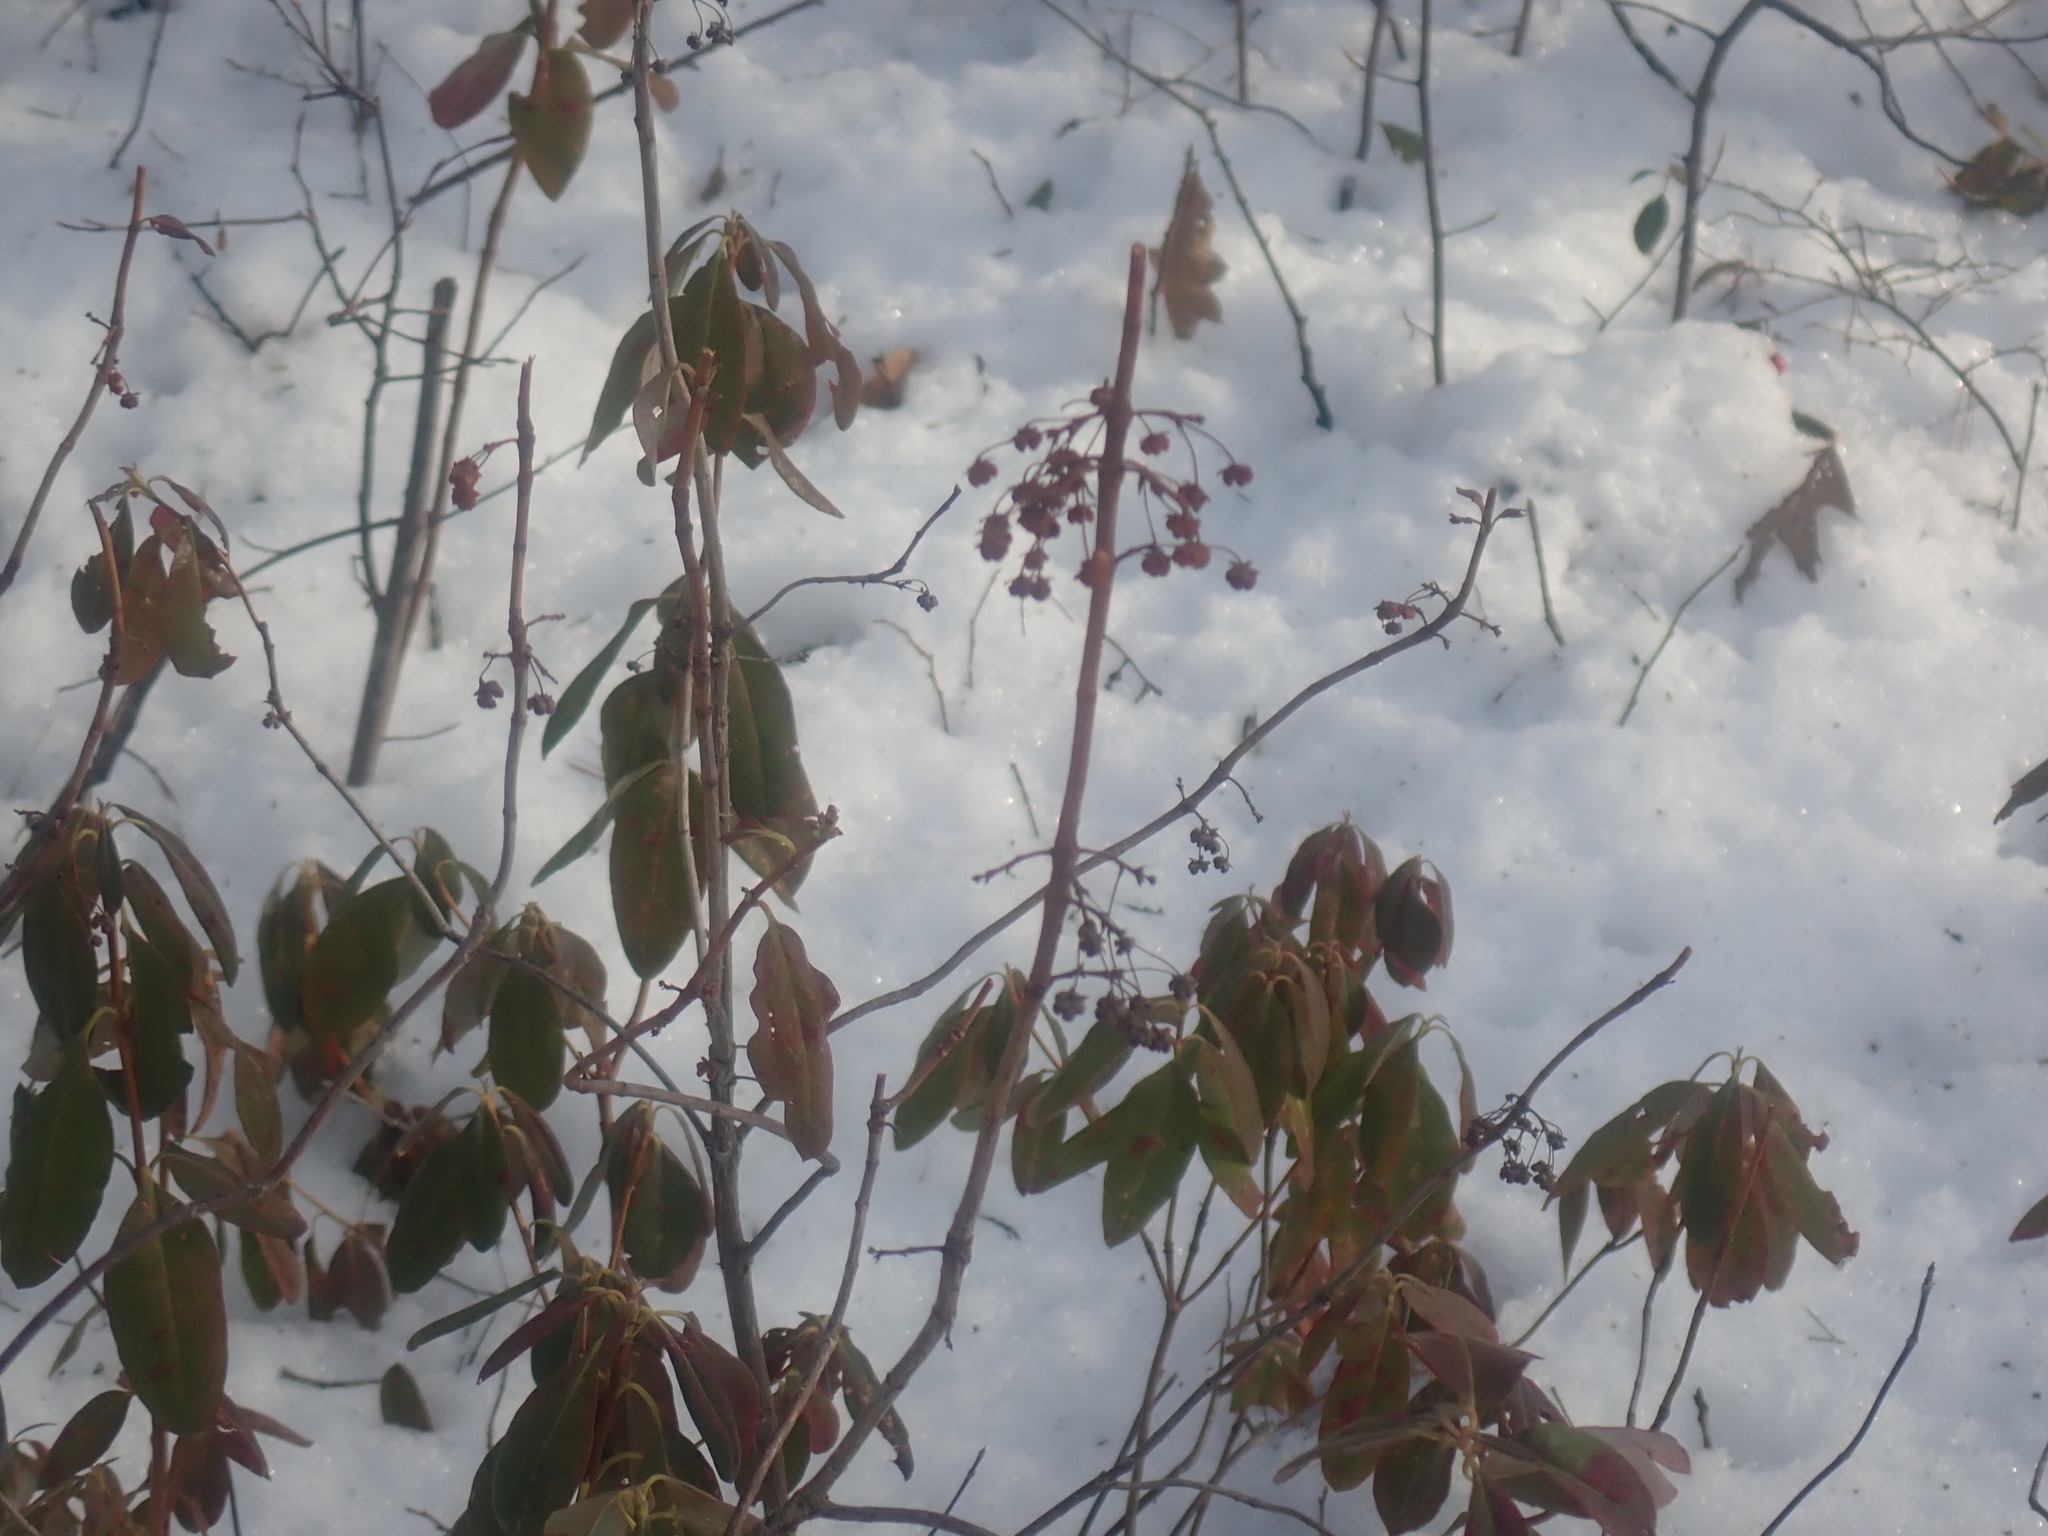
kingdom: Plantae
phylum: Tracheophyta
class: Magnoliopsida
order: Ericales
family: Ericaceae
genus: Kalmia
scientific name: Kalmia angustifolia
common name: Sheep-laurel
